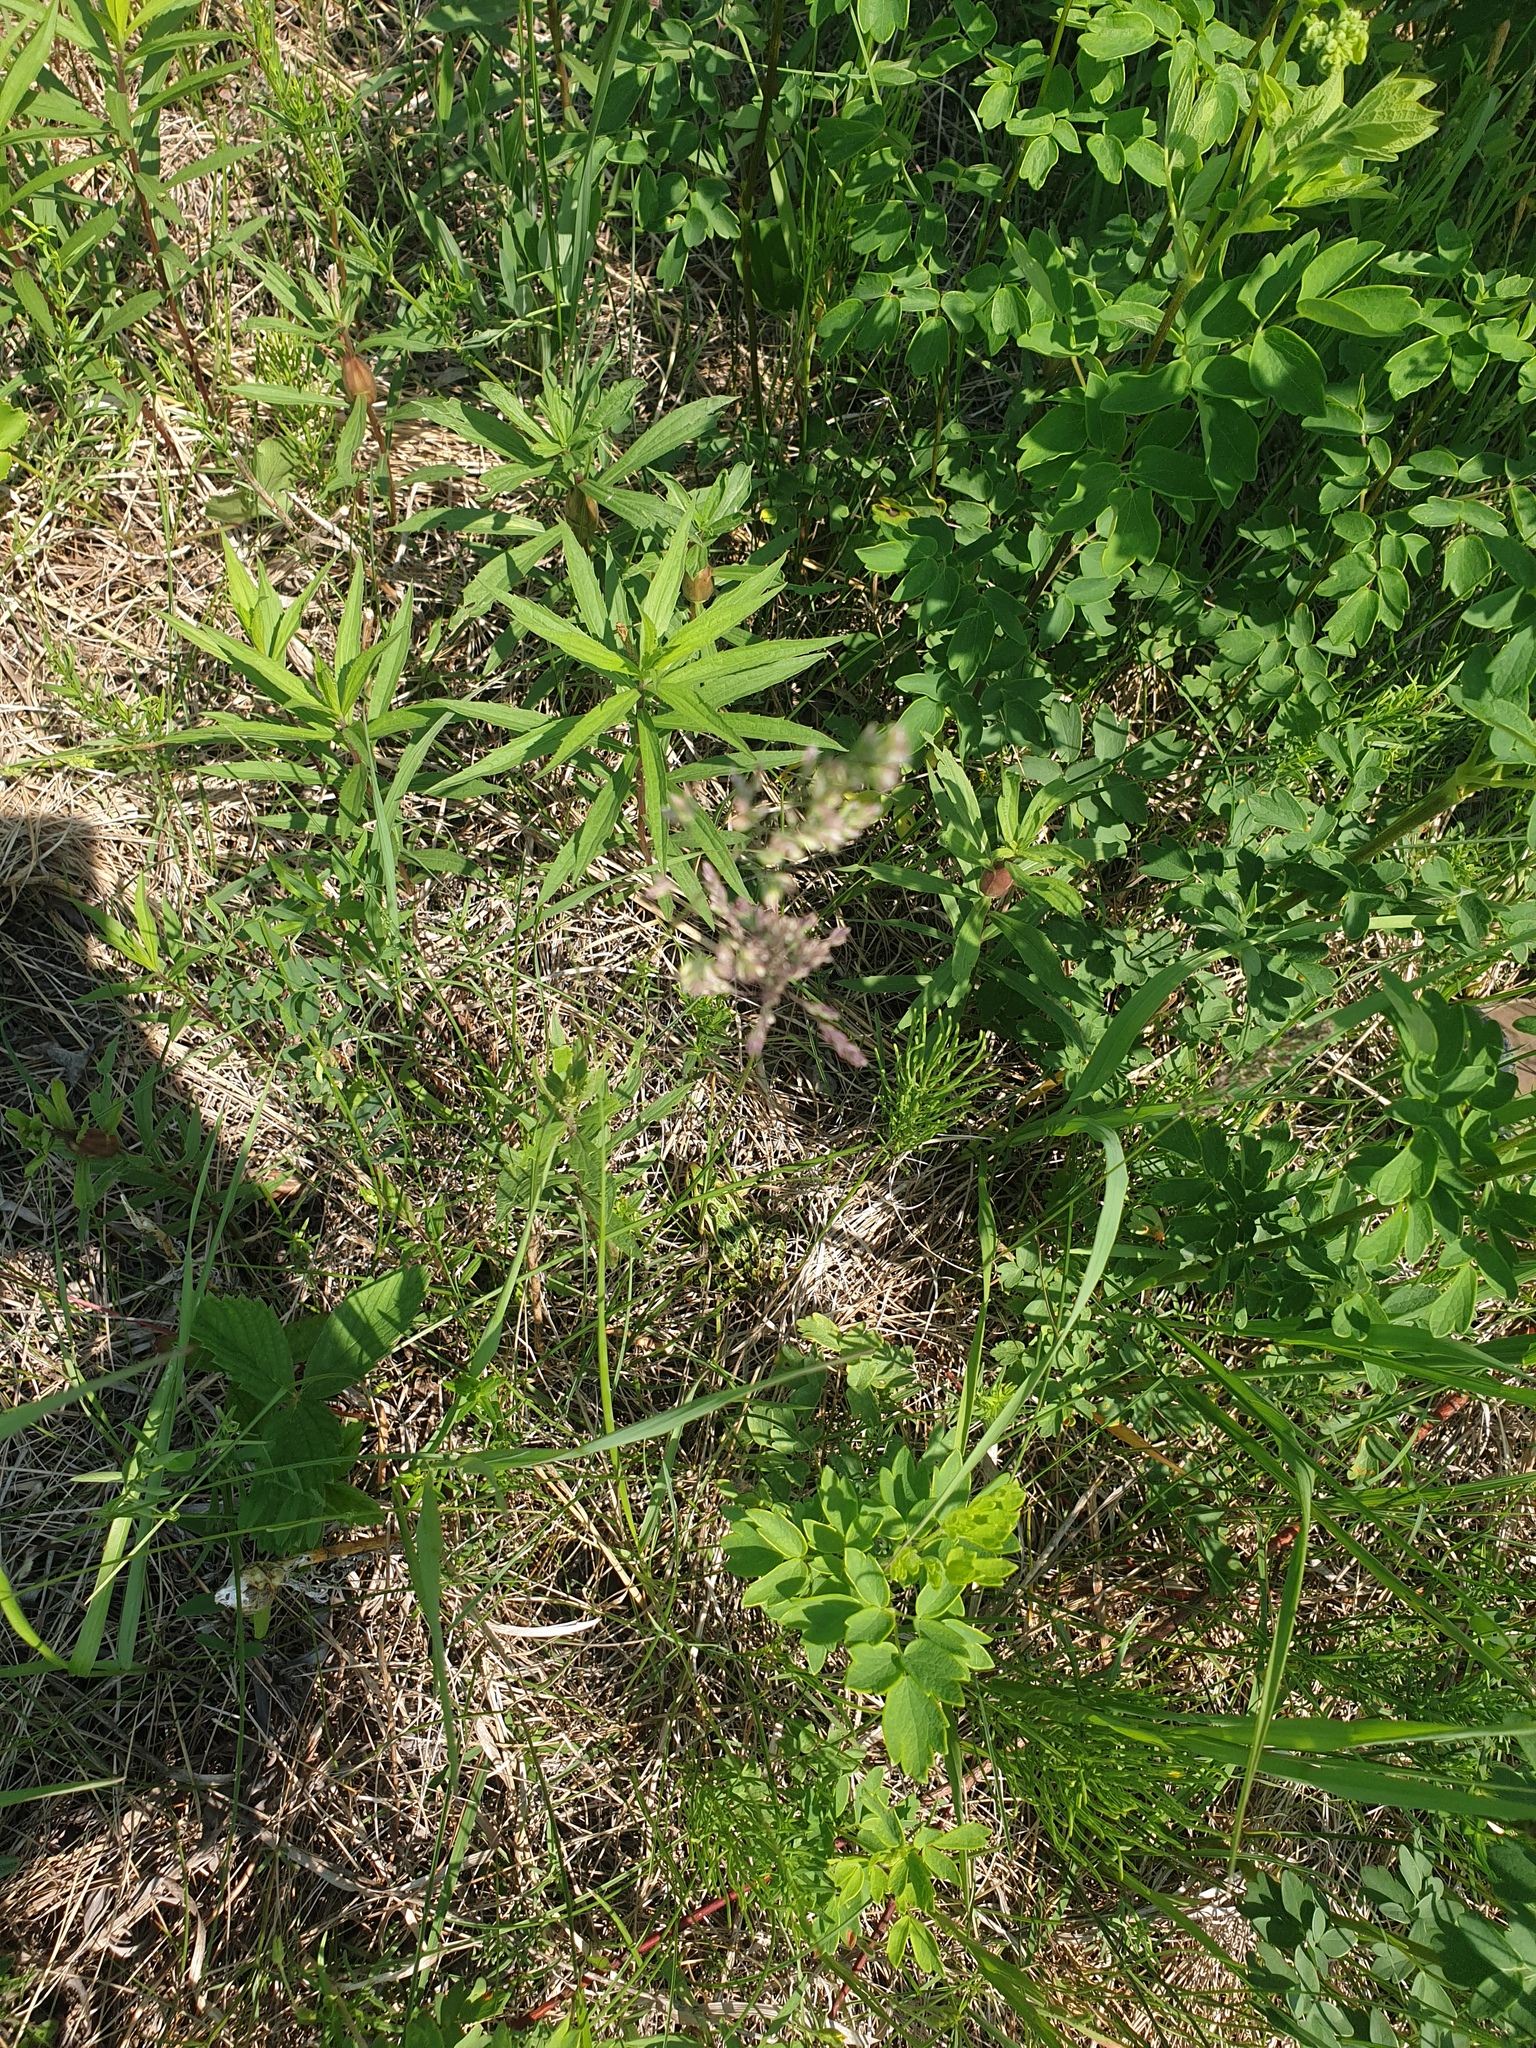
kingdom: Animalia
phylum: Chordata
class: Amphibia
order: Anura
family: Ranidae
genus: Lithobates
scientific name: Lithobates pipiens
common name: Northern leopard frog
